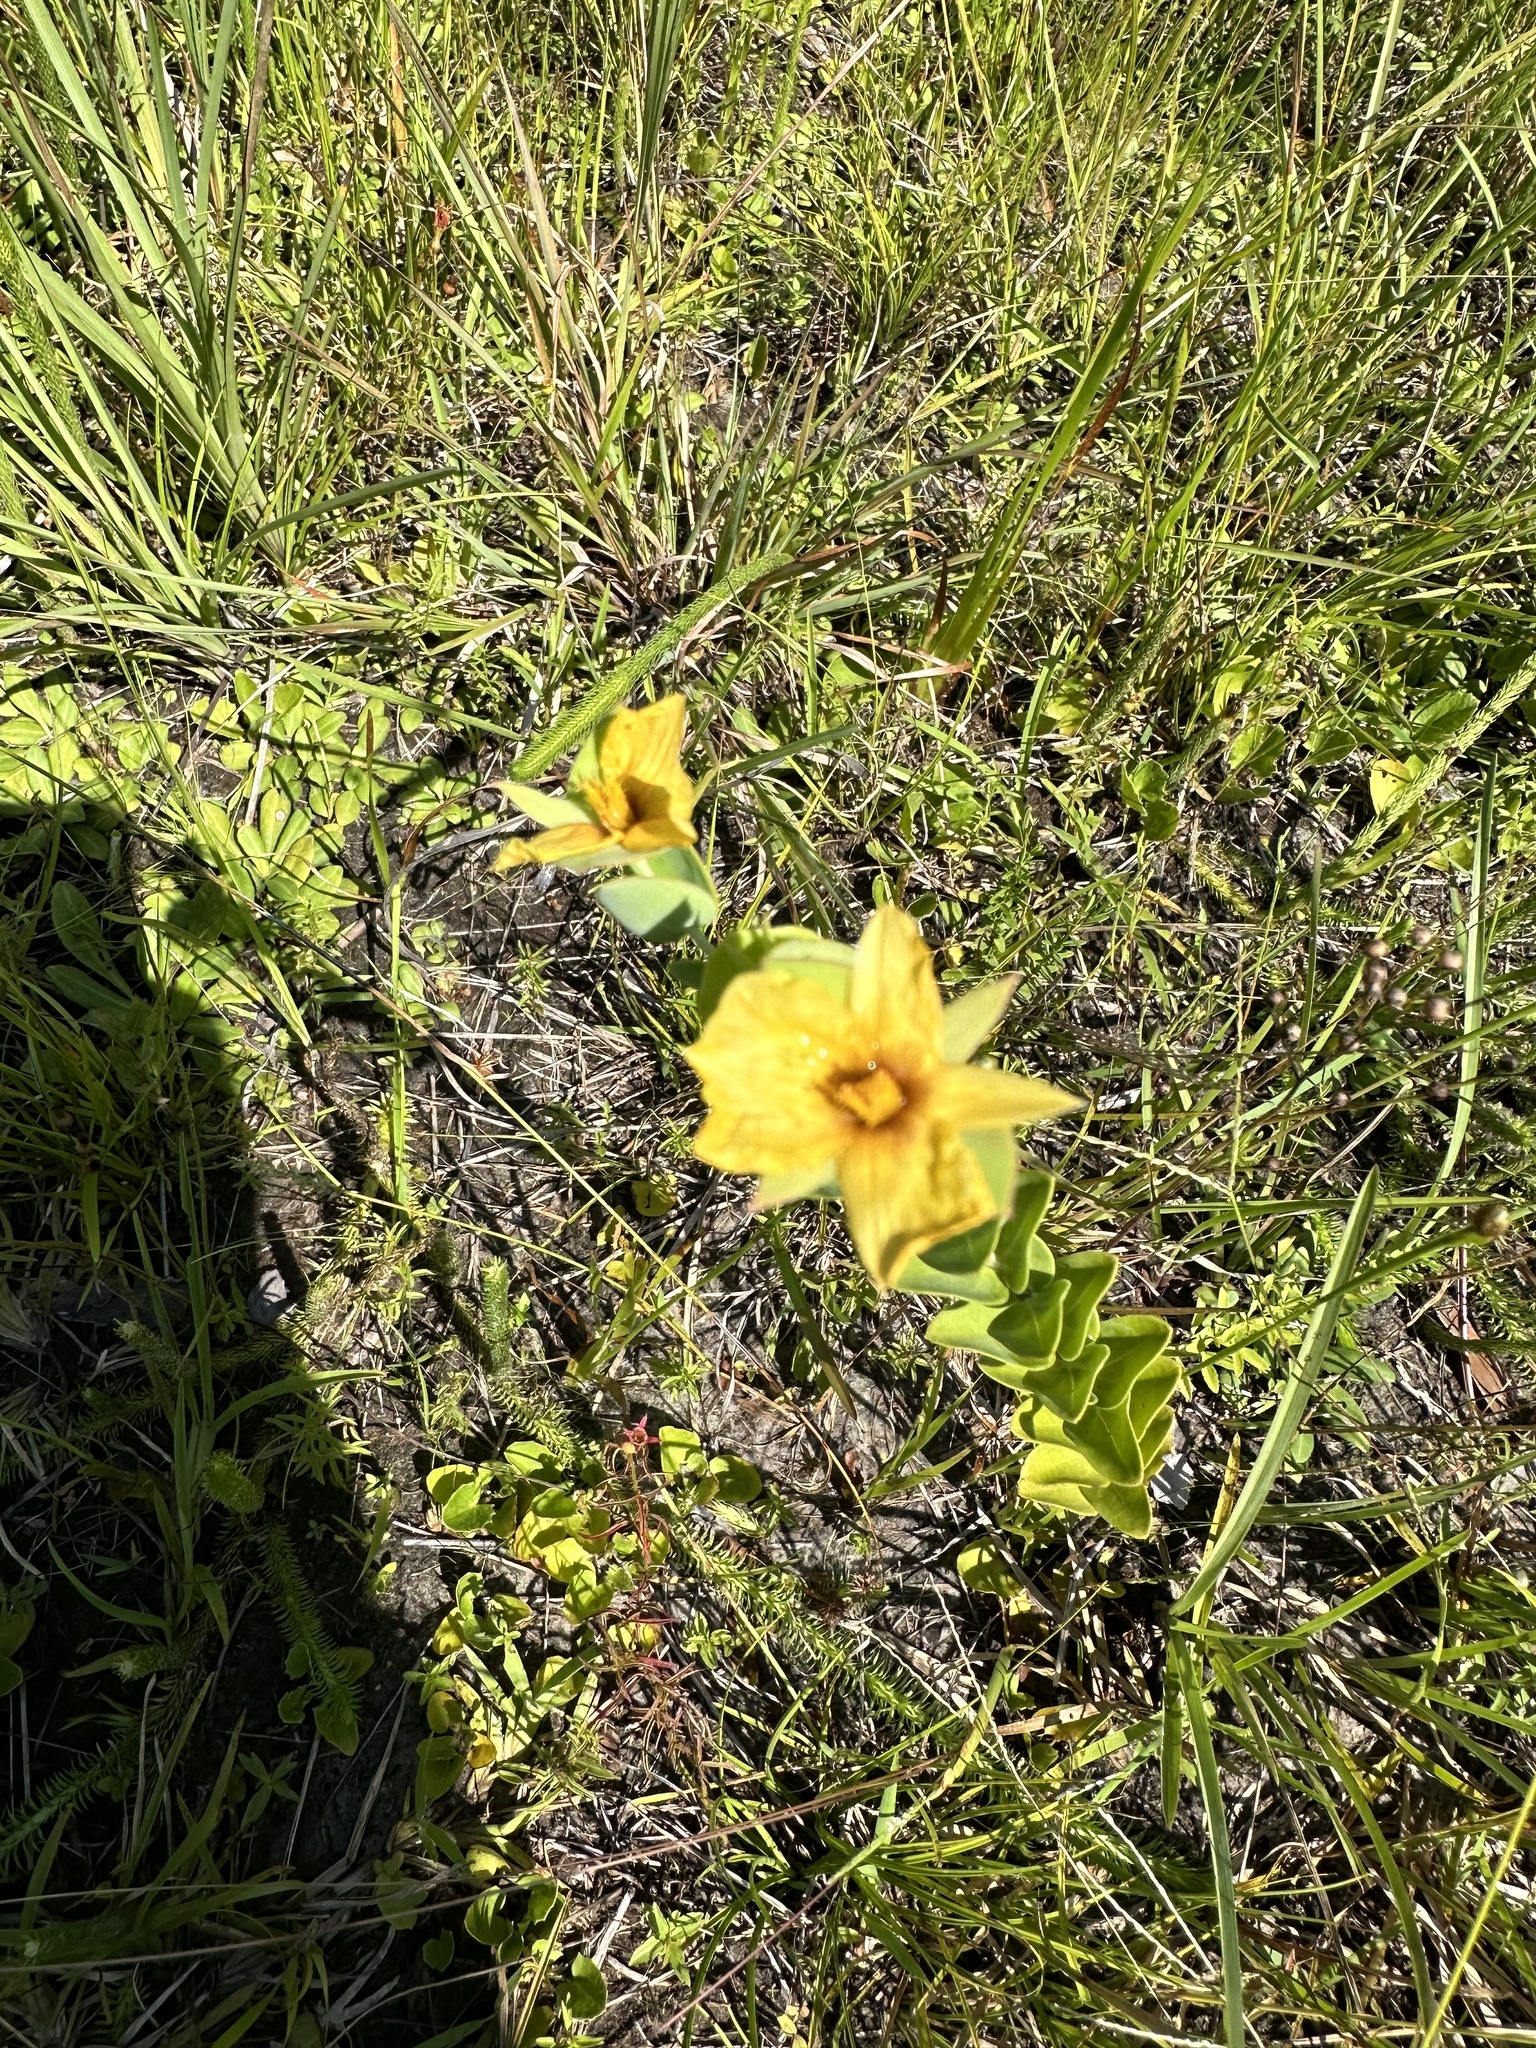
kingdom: Plantae
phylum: Tracheophyta
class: Magnoliopsida
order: Malpighiales
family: Hypericaceae
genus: Hypericum
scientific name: Hypericum tetrapetalum
